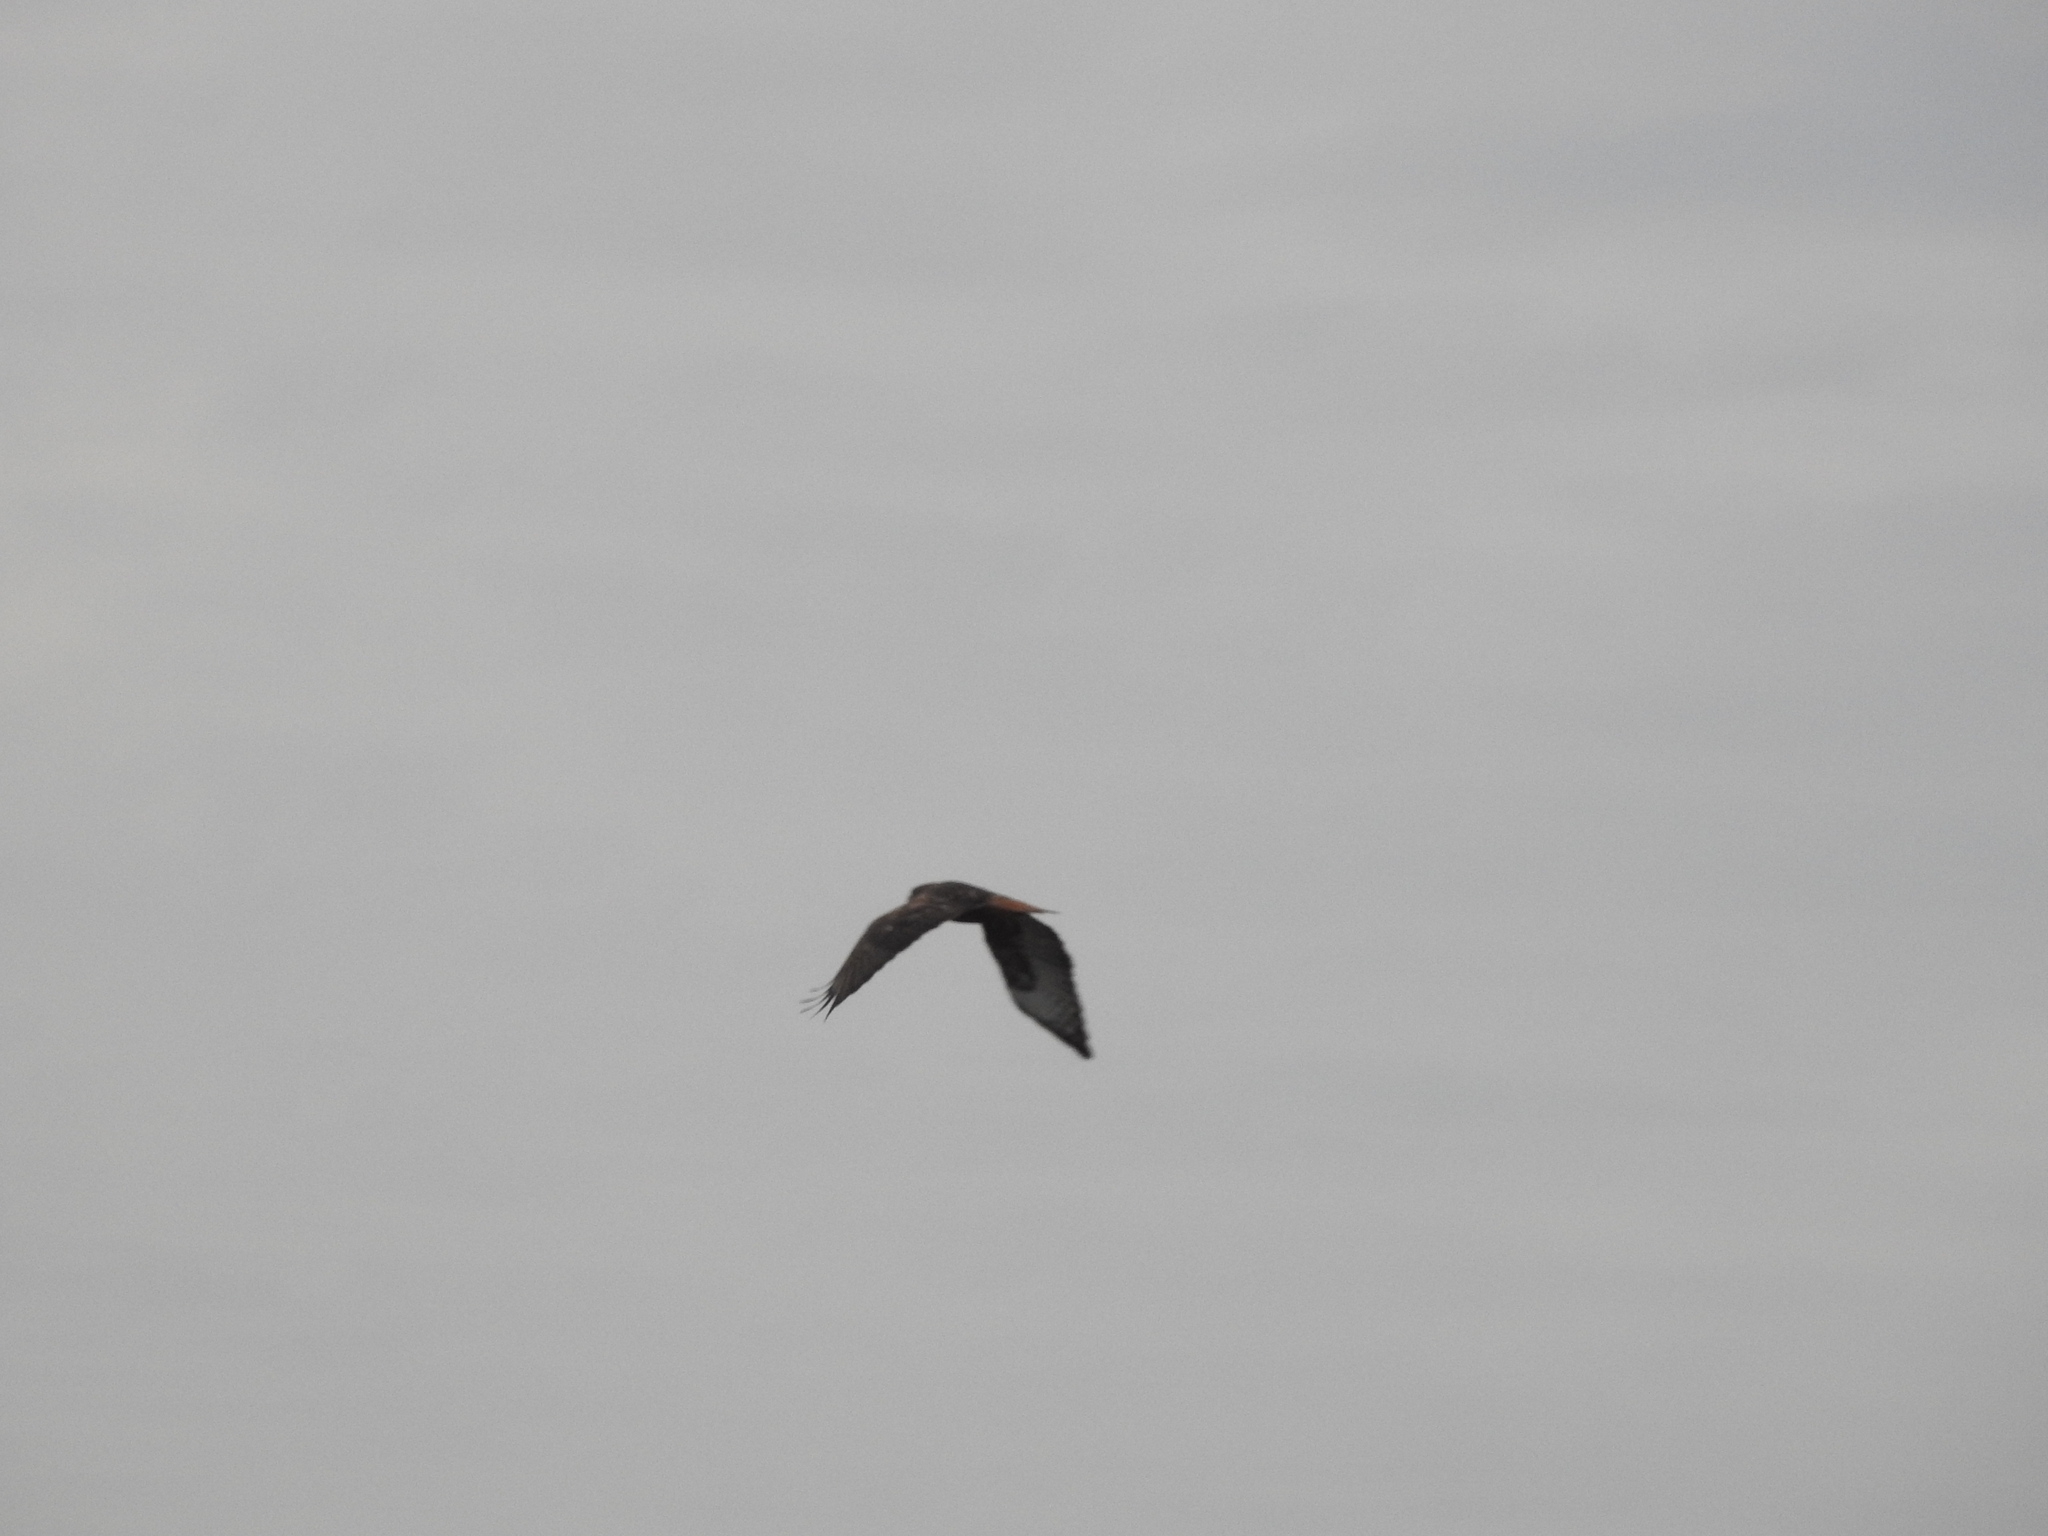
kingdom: Animalia
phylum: Chordata
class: Aves
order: Accipitriformes
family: Accipitridae
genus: Buteo
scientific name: Buteo jamaicensis
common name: Red-tailed hawk
